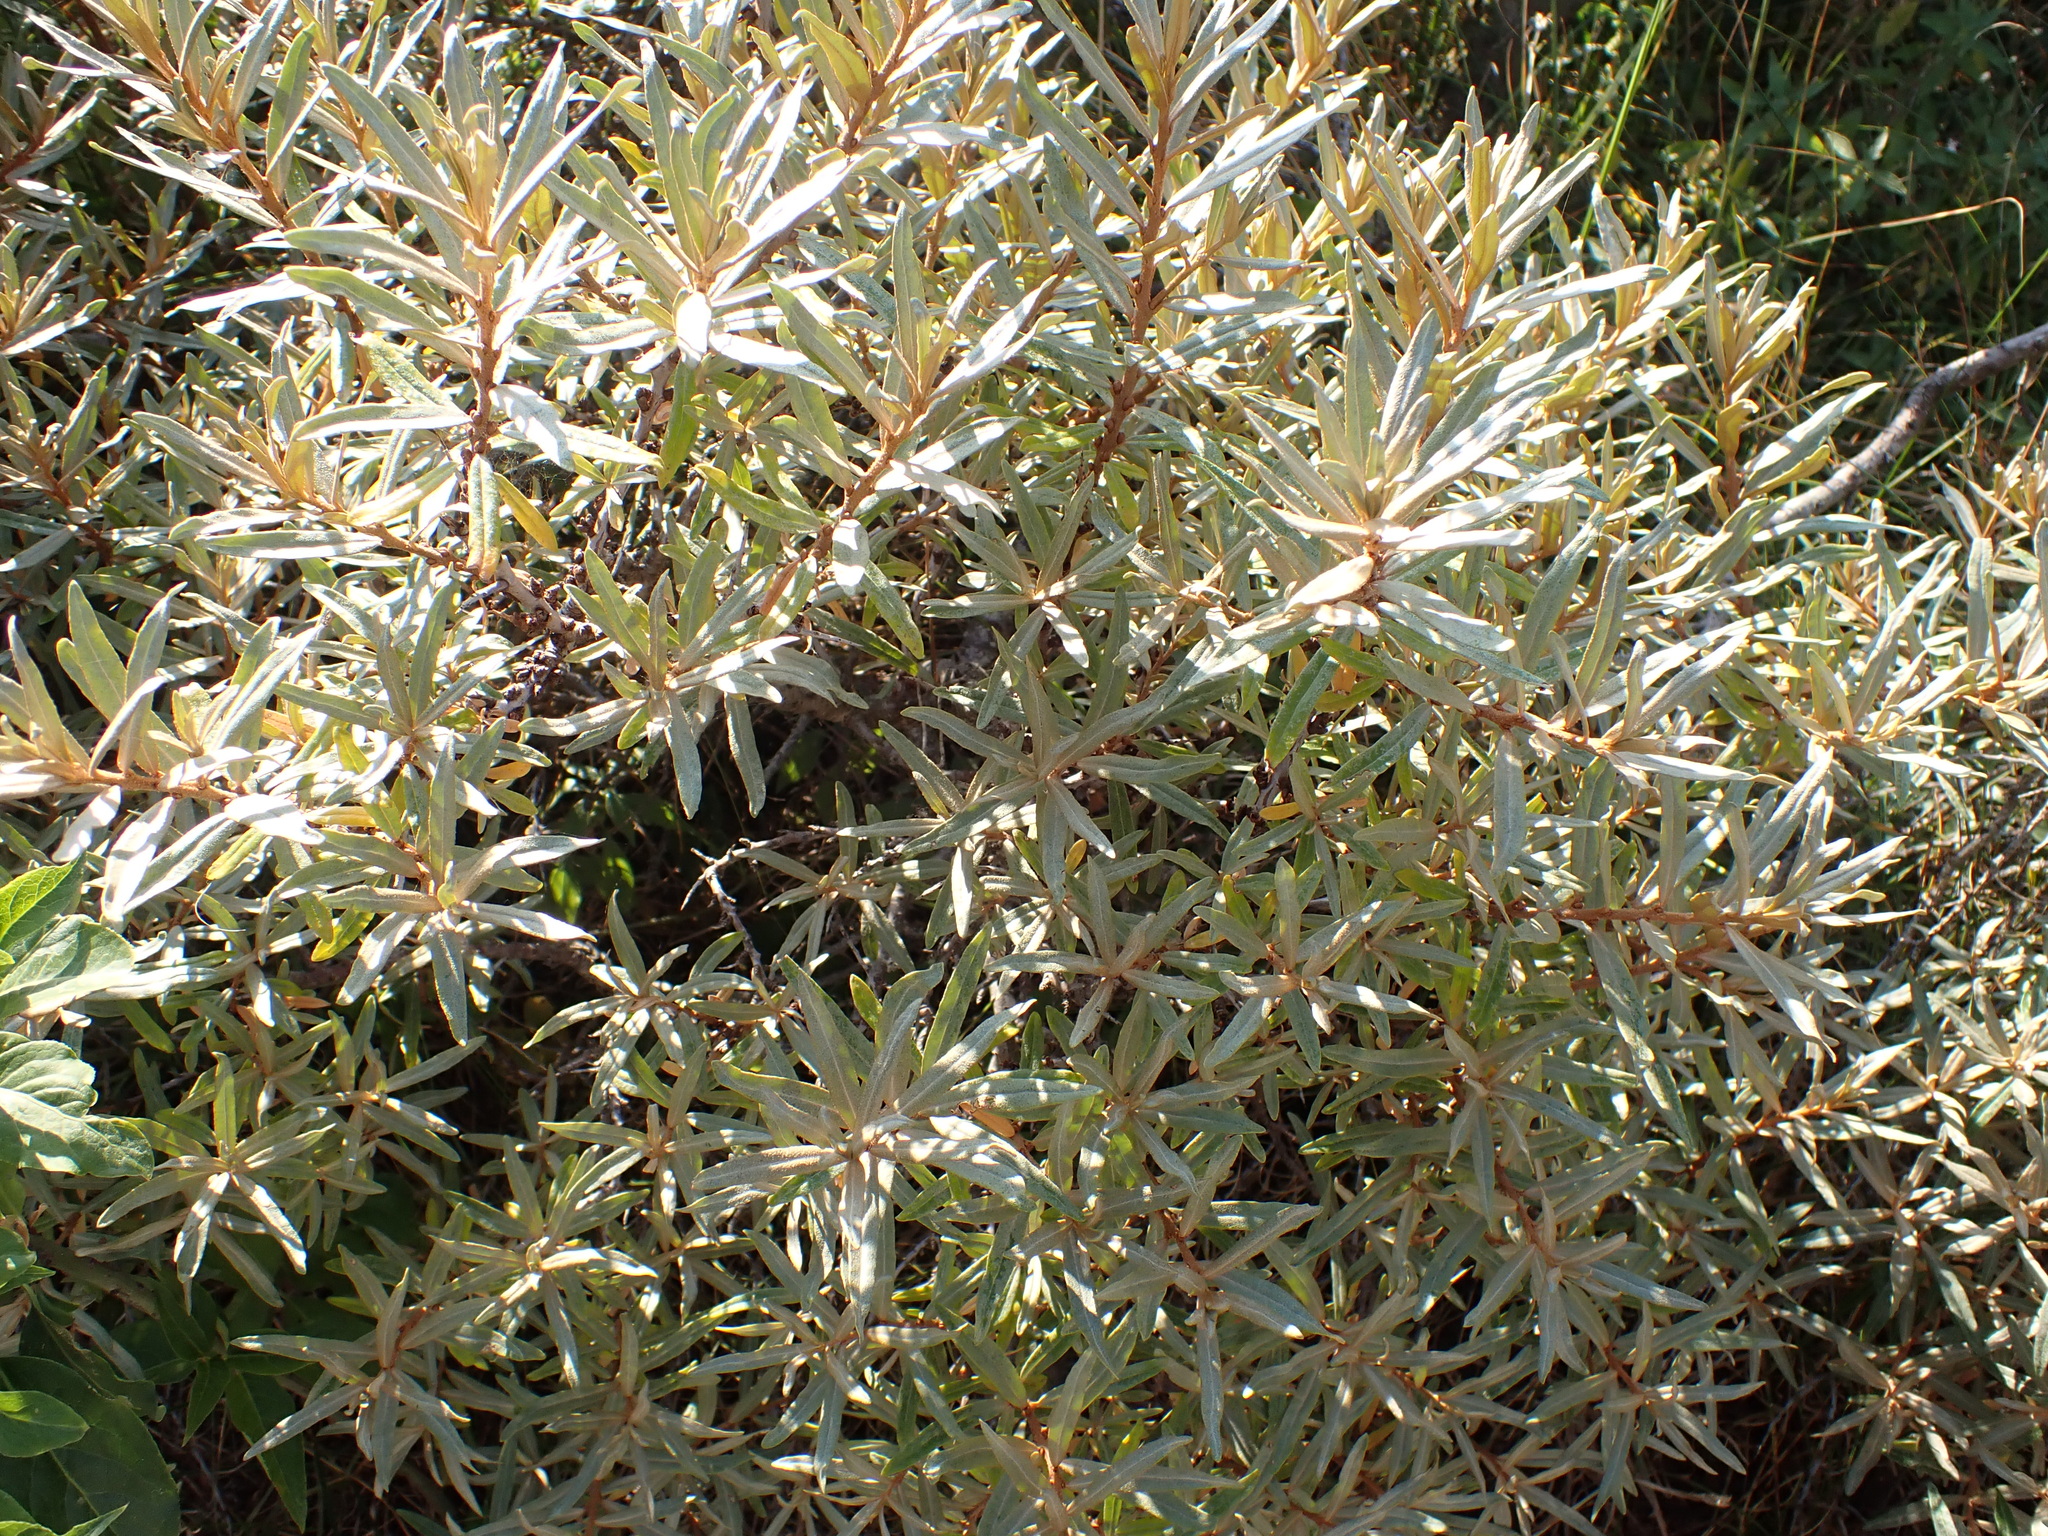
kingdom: Plantae
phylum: Tracheophyta
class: Magnoliopsida
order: Rosales
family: Elaeagnaceae
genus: Hippophae
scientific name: Hippophae rhamnoides
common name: Sea-buckthorn
